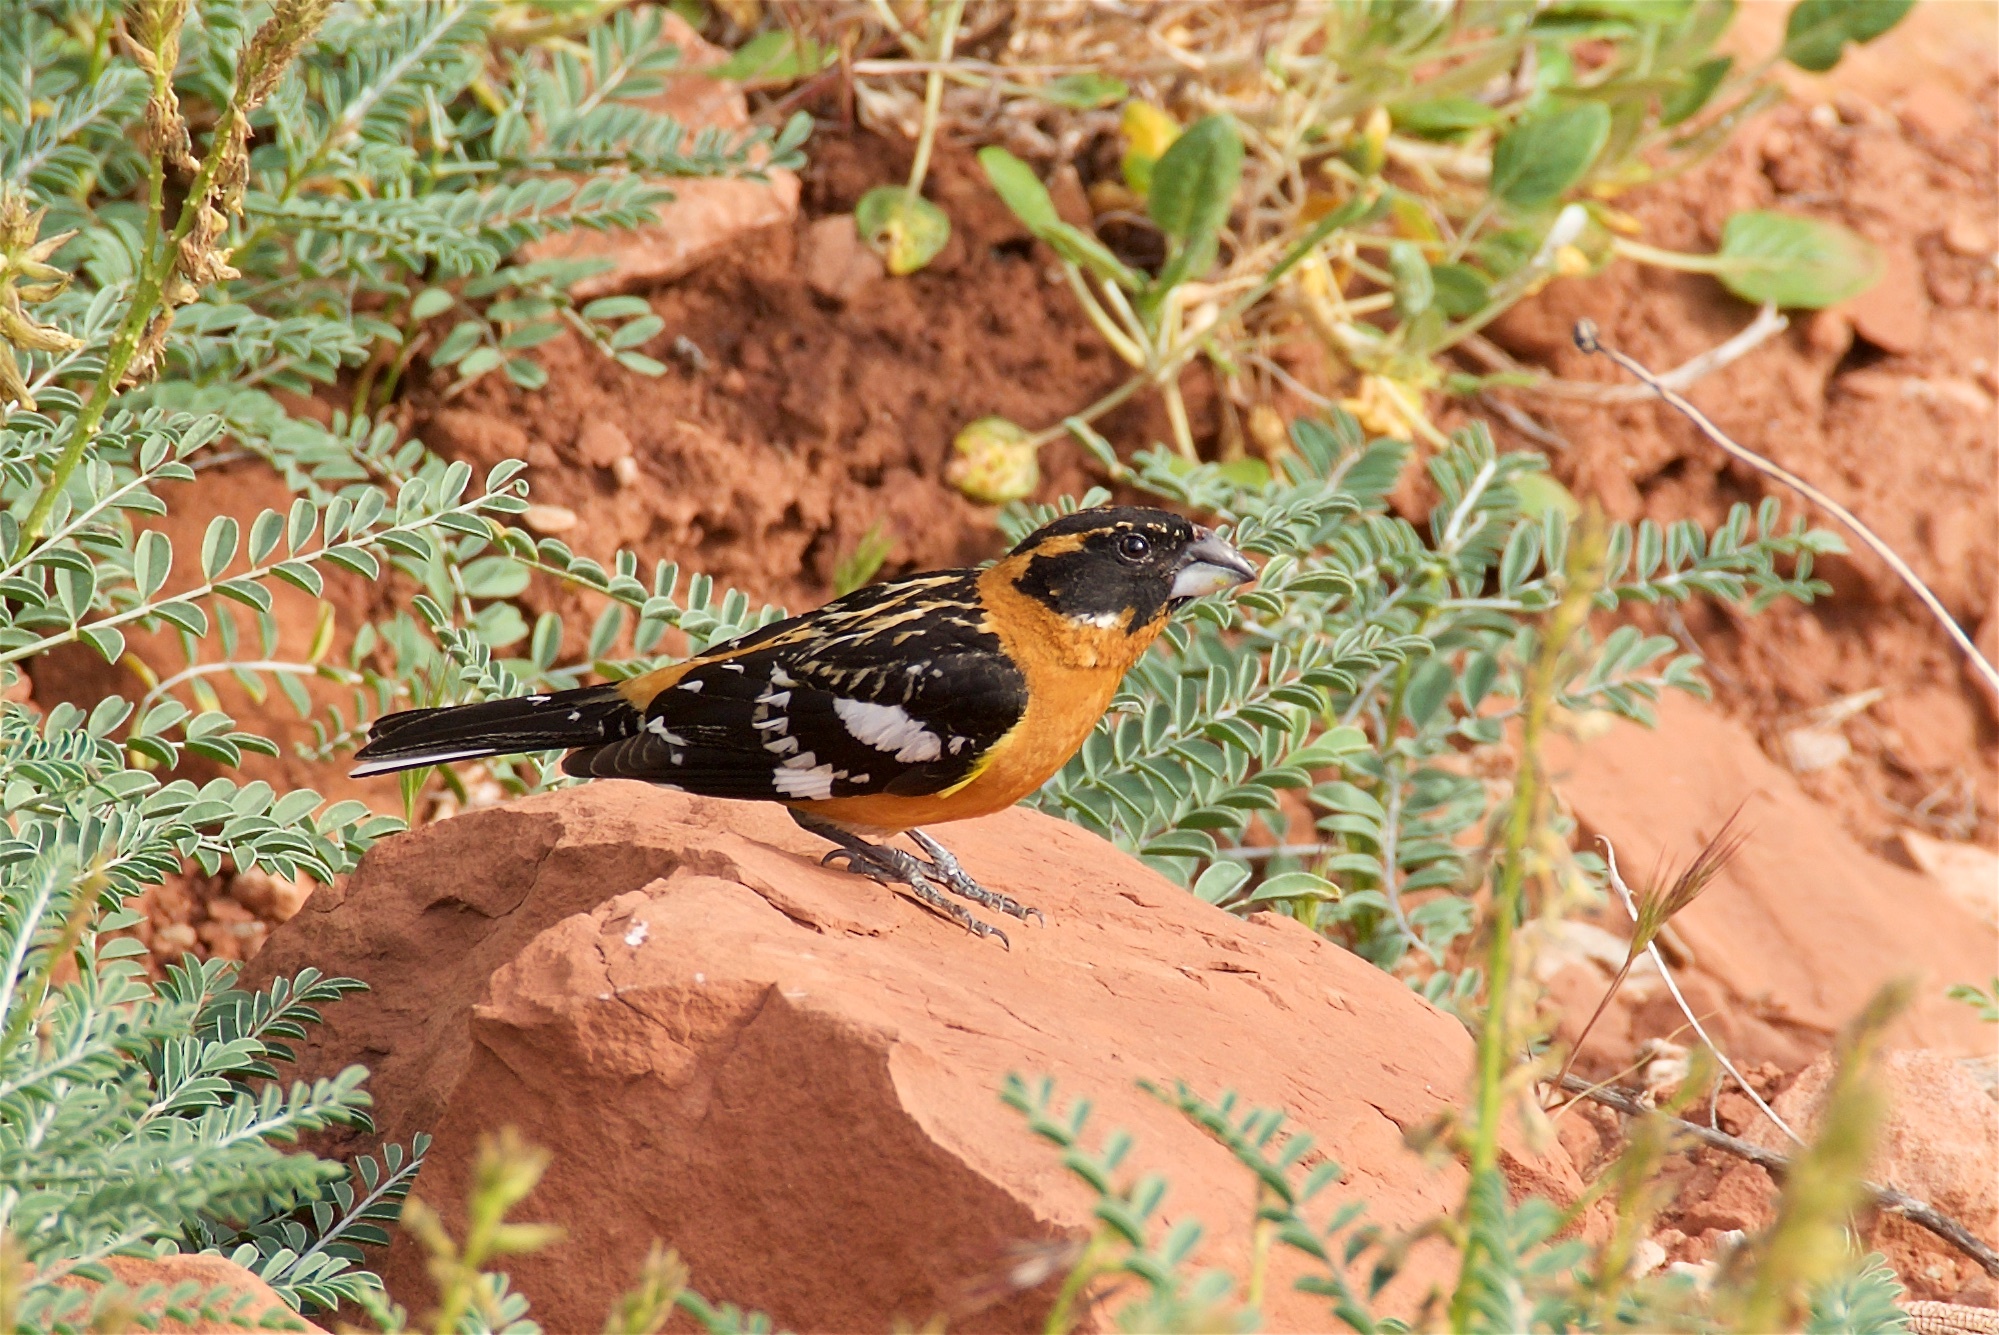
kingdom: Animalia
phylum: Chordata
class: Aves
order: Passeriformes
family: Cardinalidae
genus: Pheucticus
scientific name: Pheucticus melanocephalus
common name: Black-headed grosbeak
